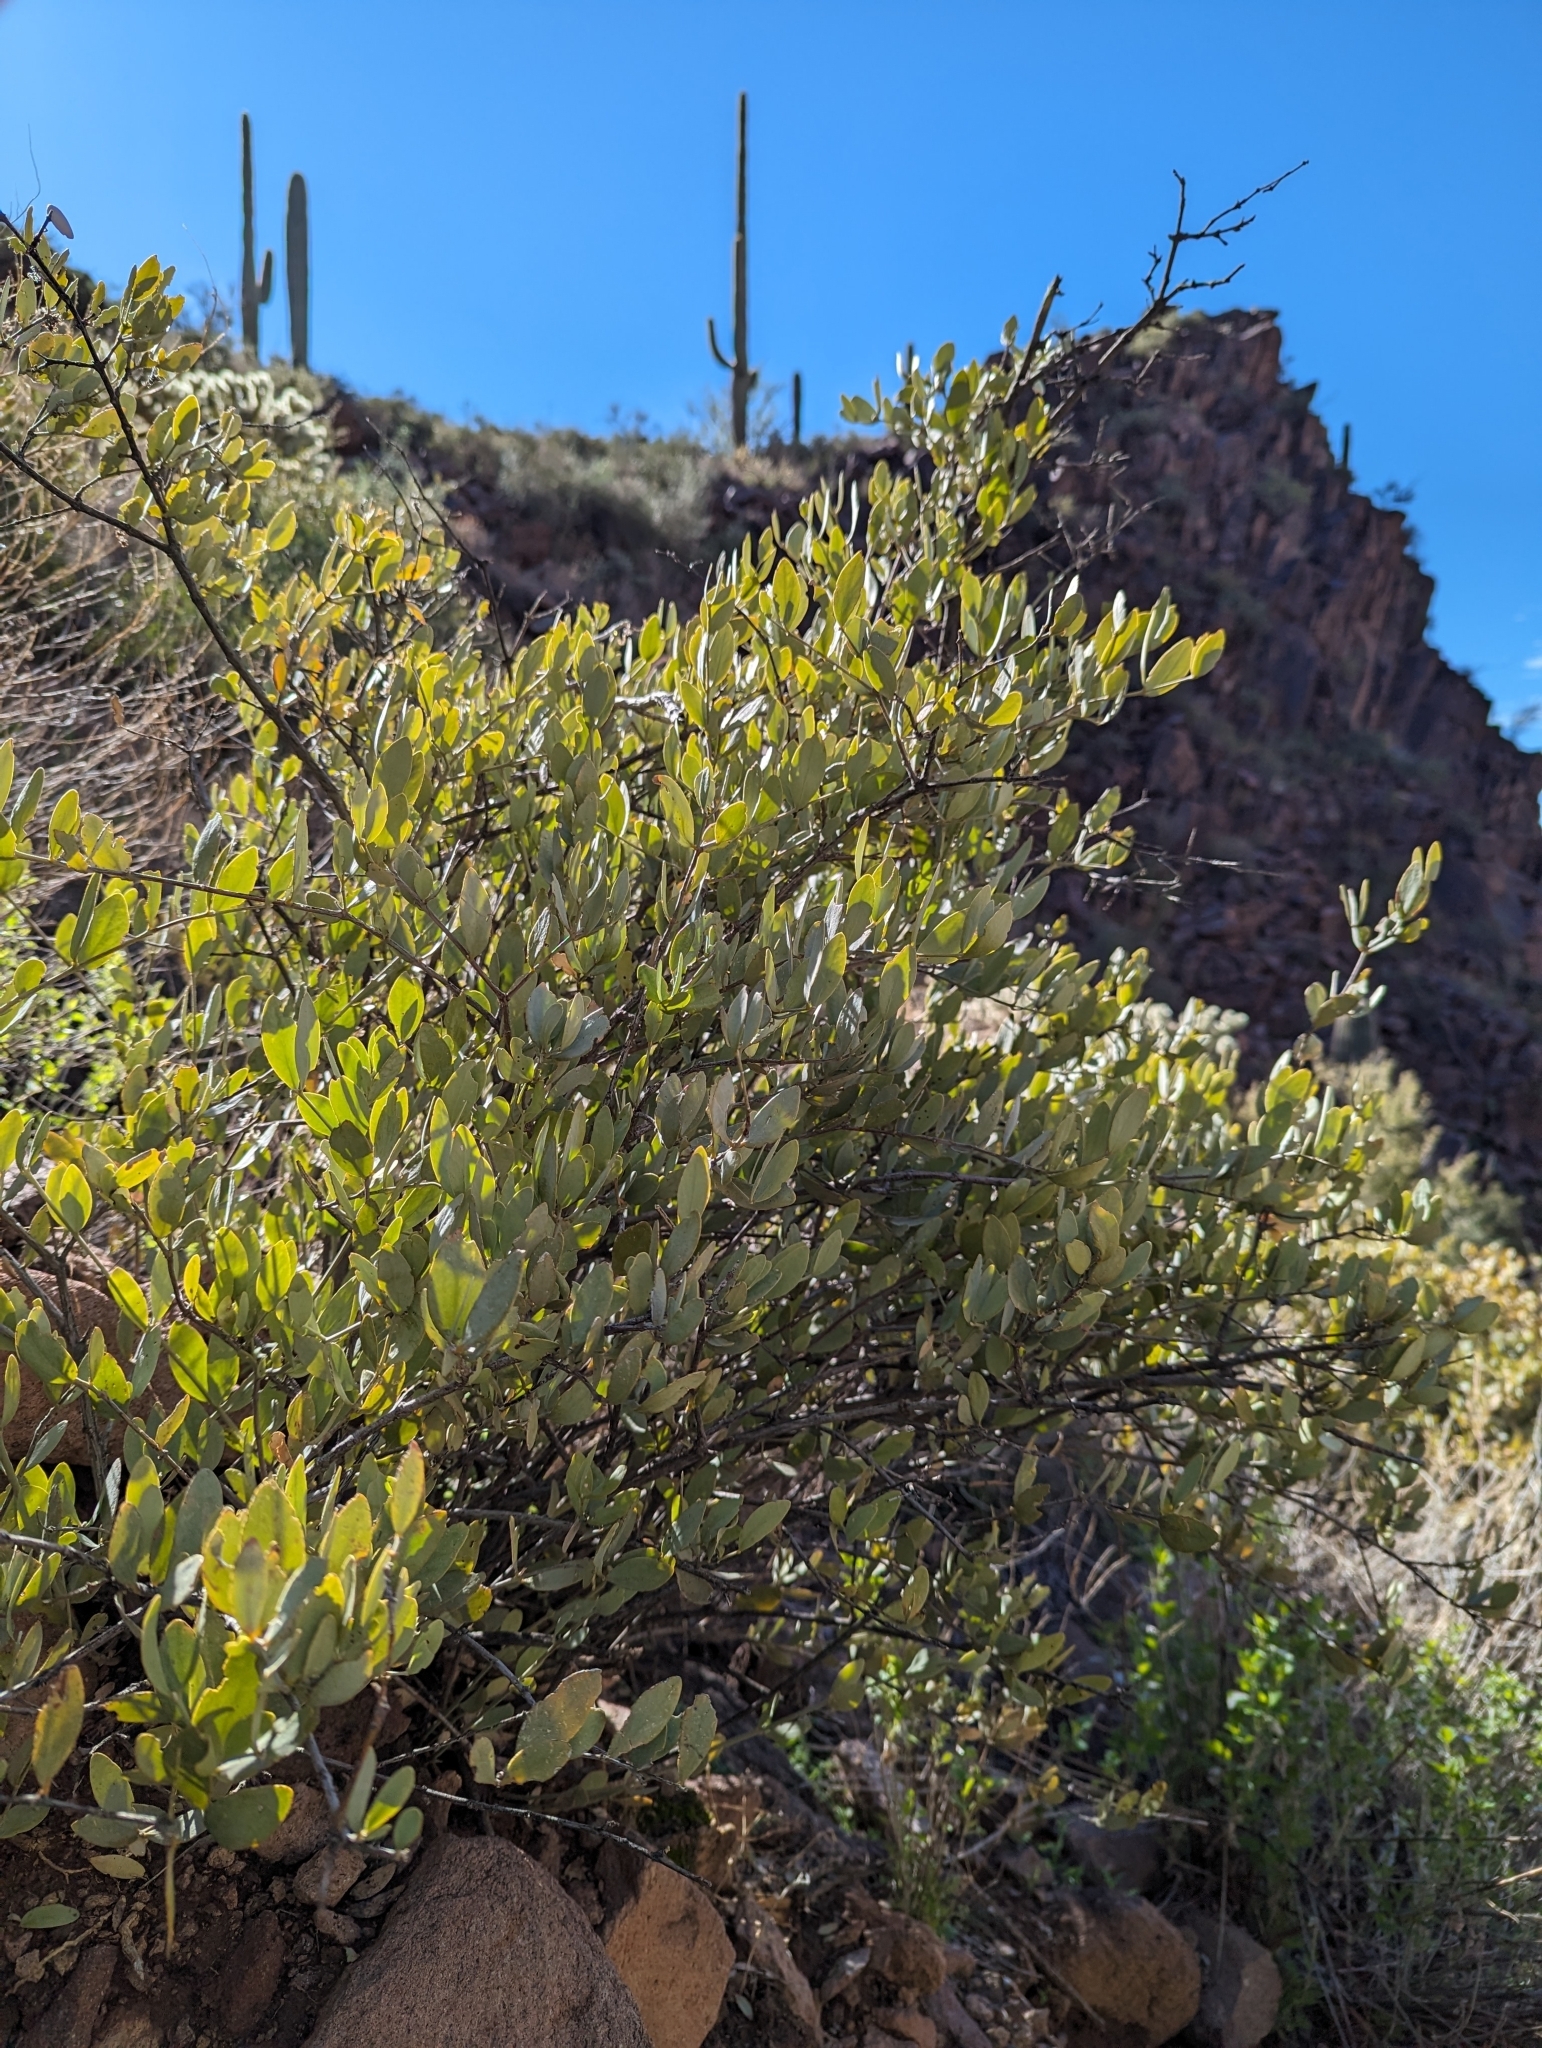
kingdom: Plantae
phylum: Tracheophyta
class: Magnoliopsida
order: Caryophyllales
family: Simmondsiaceae
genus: Simmondsia
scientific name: Simmondsia chinensis
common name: Jojoba
